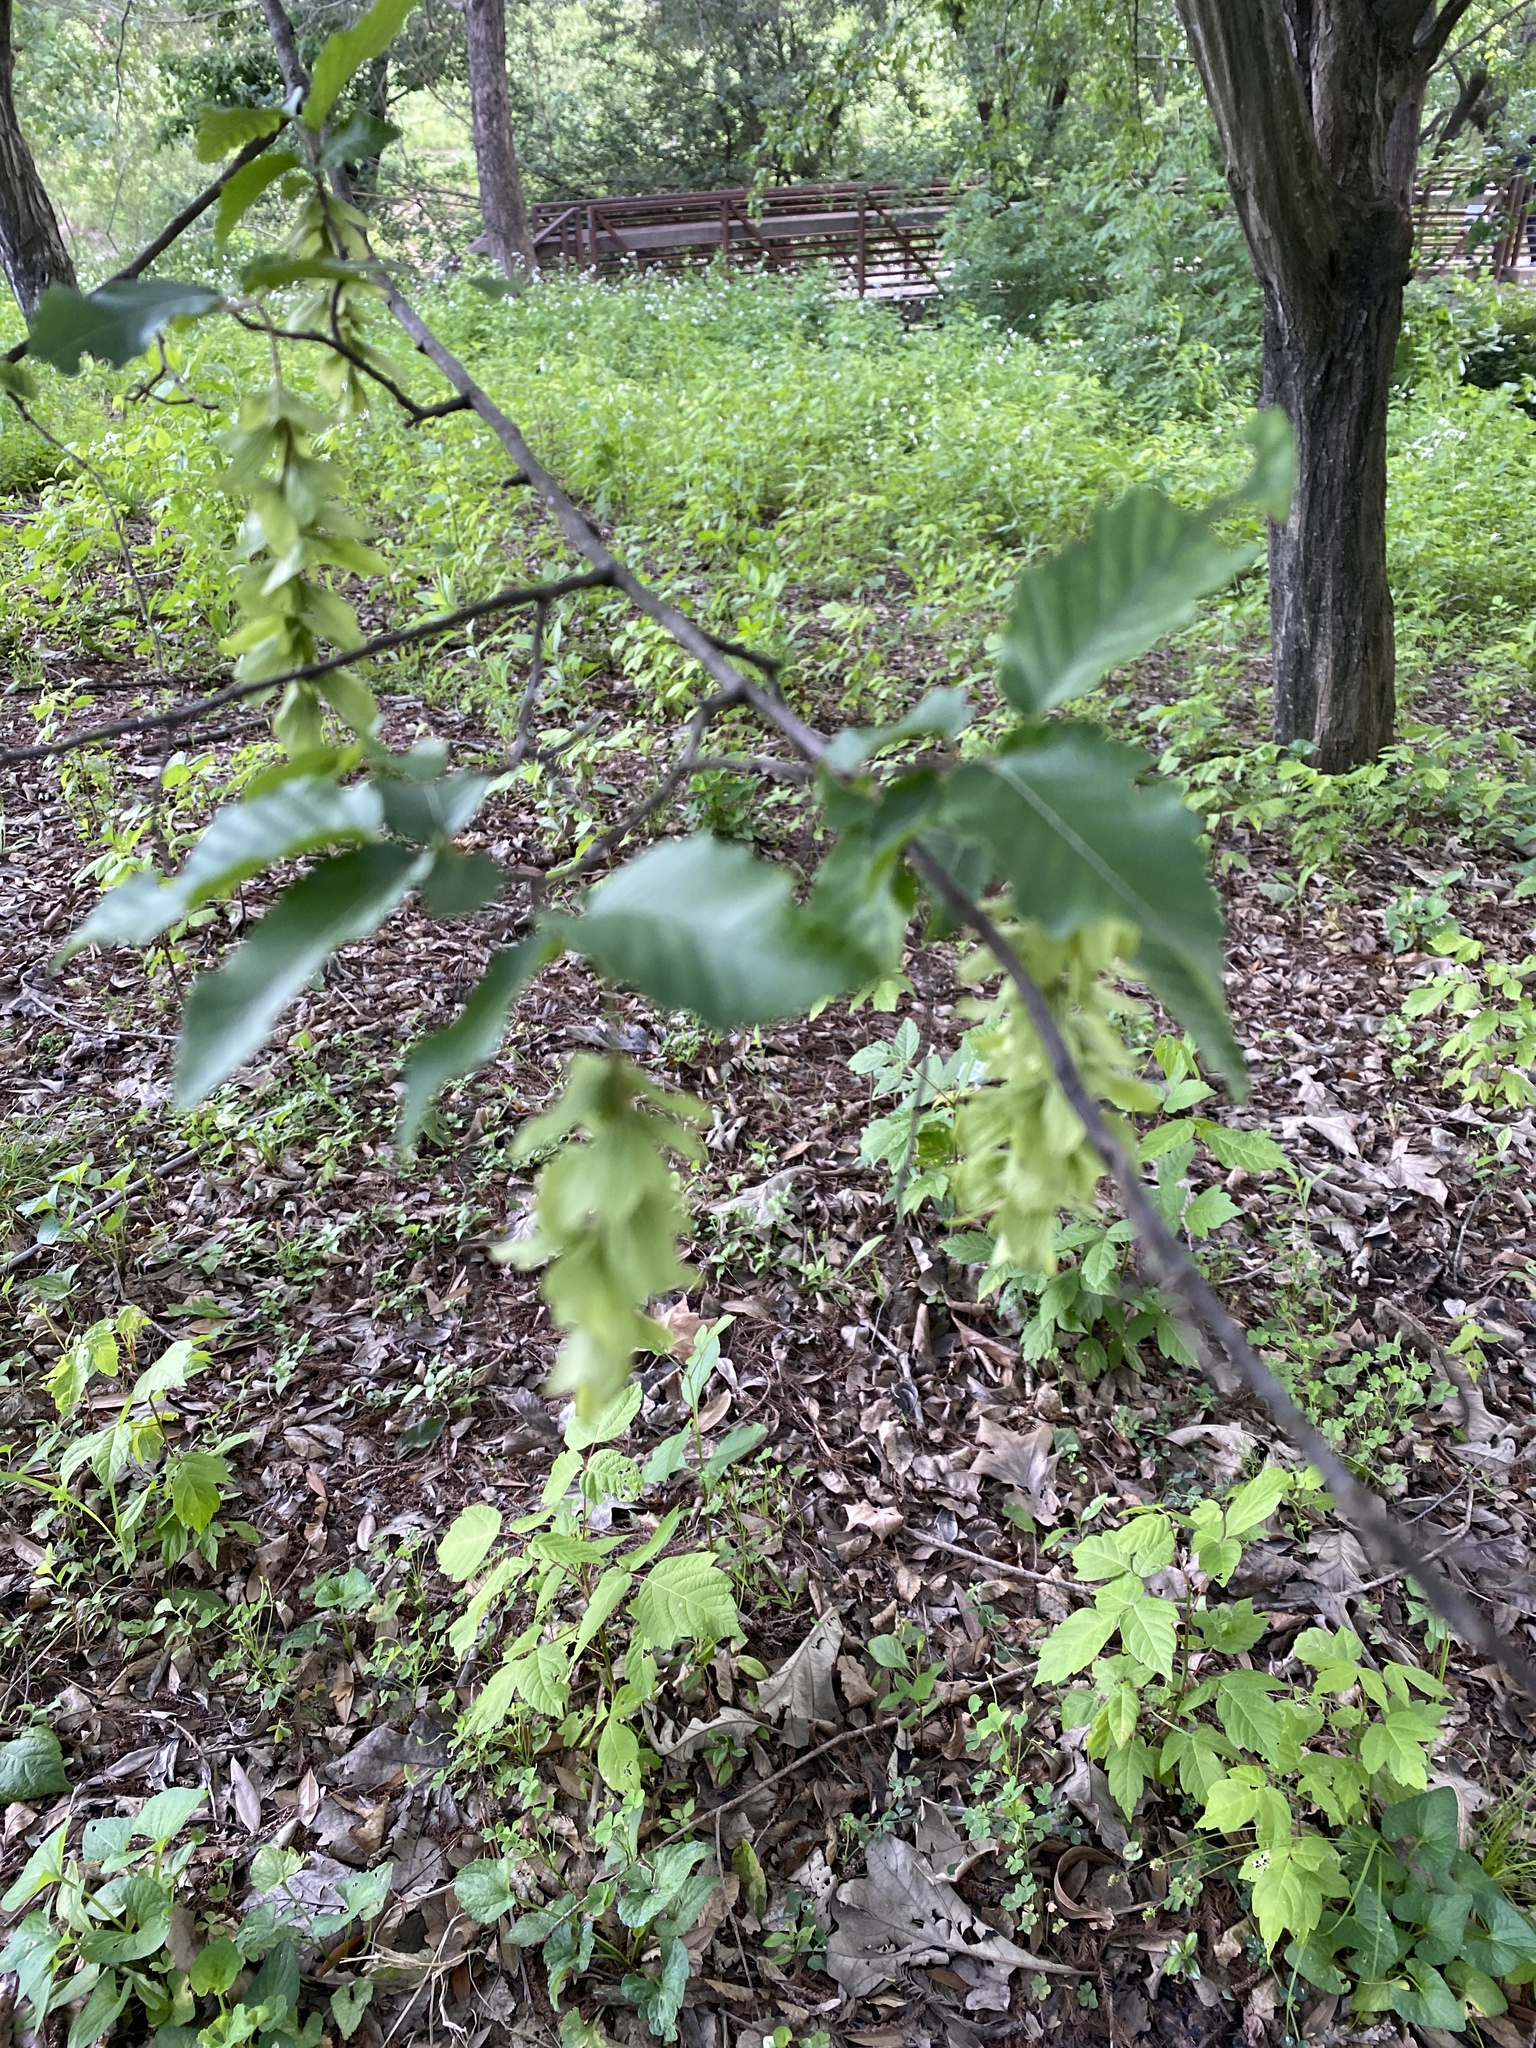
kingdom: Plantae
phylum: Tracheophyta
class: Magnoliopsida
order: Fagales
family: Betulaceae
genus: Carpinus
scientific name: Carpinus caroliniana
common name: American hornbeam
